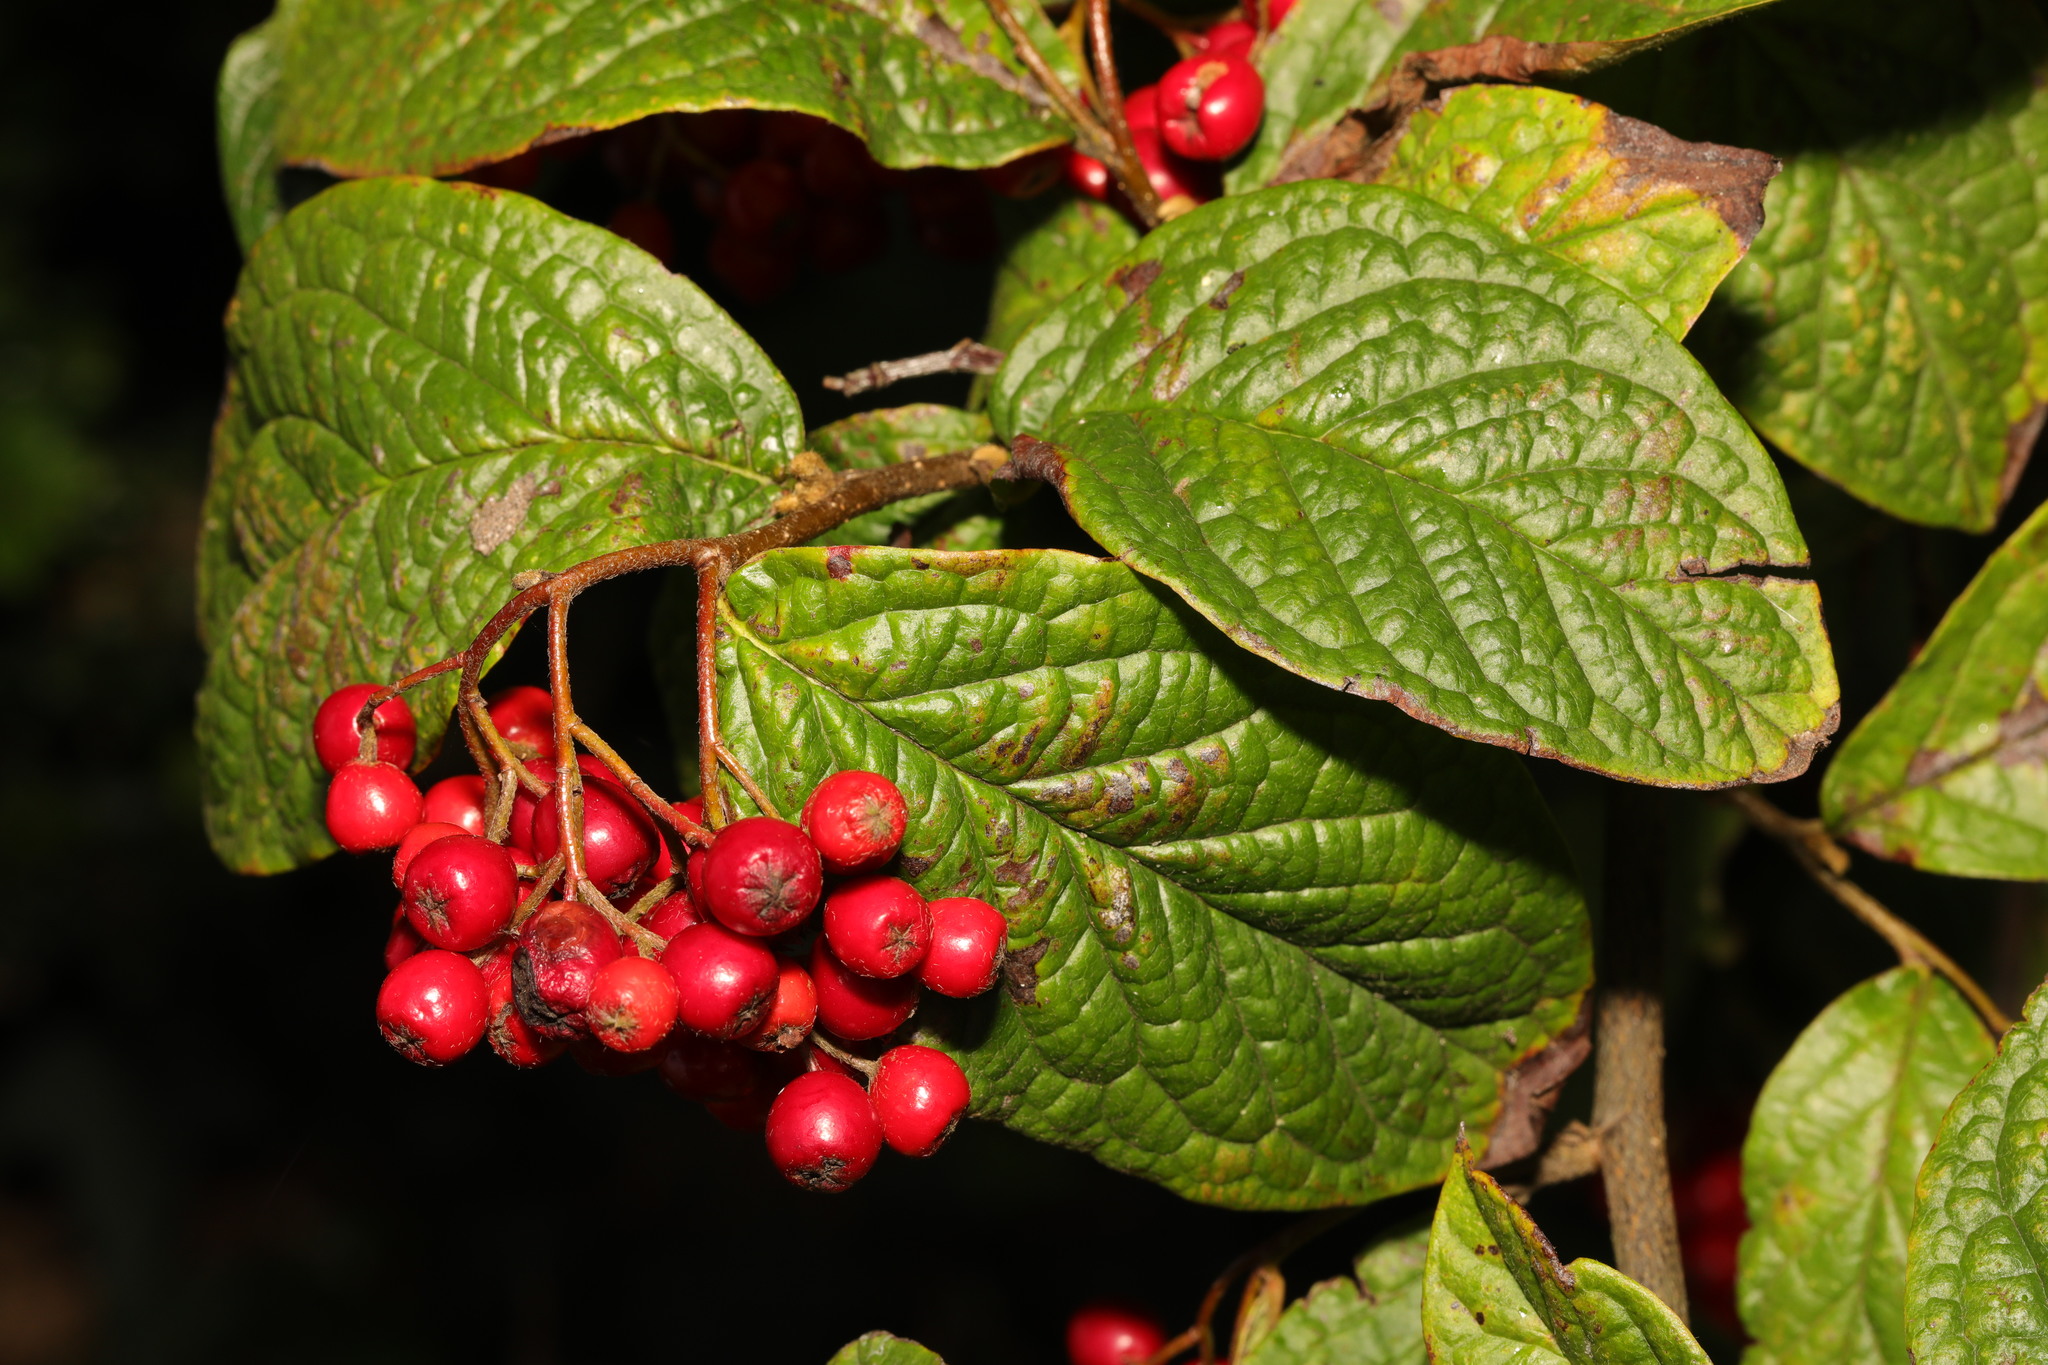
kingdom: Plantae
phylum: Tracheophyta
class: Magnoliopsida
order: Rosales
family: Rosaceae
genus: Cotoneaster
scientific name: Cotoneaster bullatus
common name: Hollyberry cotoneaster
